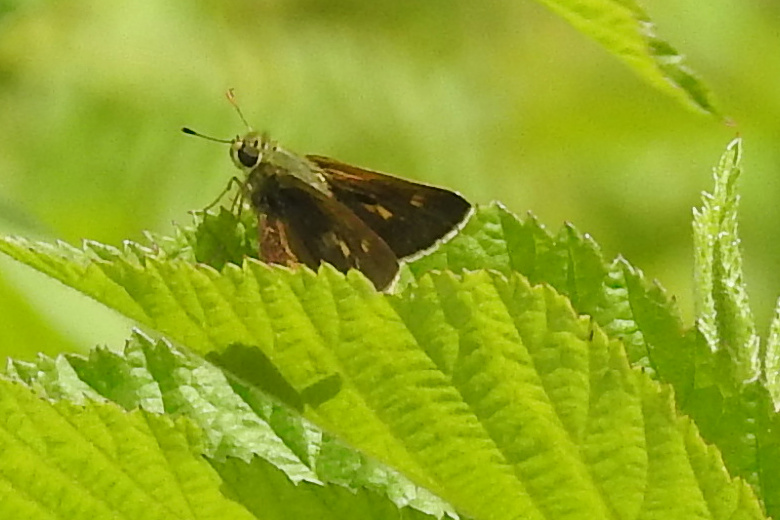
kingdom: Animalia
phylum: Arthropoda
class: Insecta
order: Lepidoptera
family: Hesperiidae
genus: Polites
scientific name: Polites egeremet
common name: Northern broken-dash
